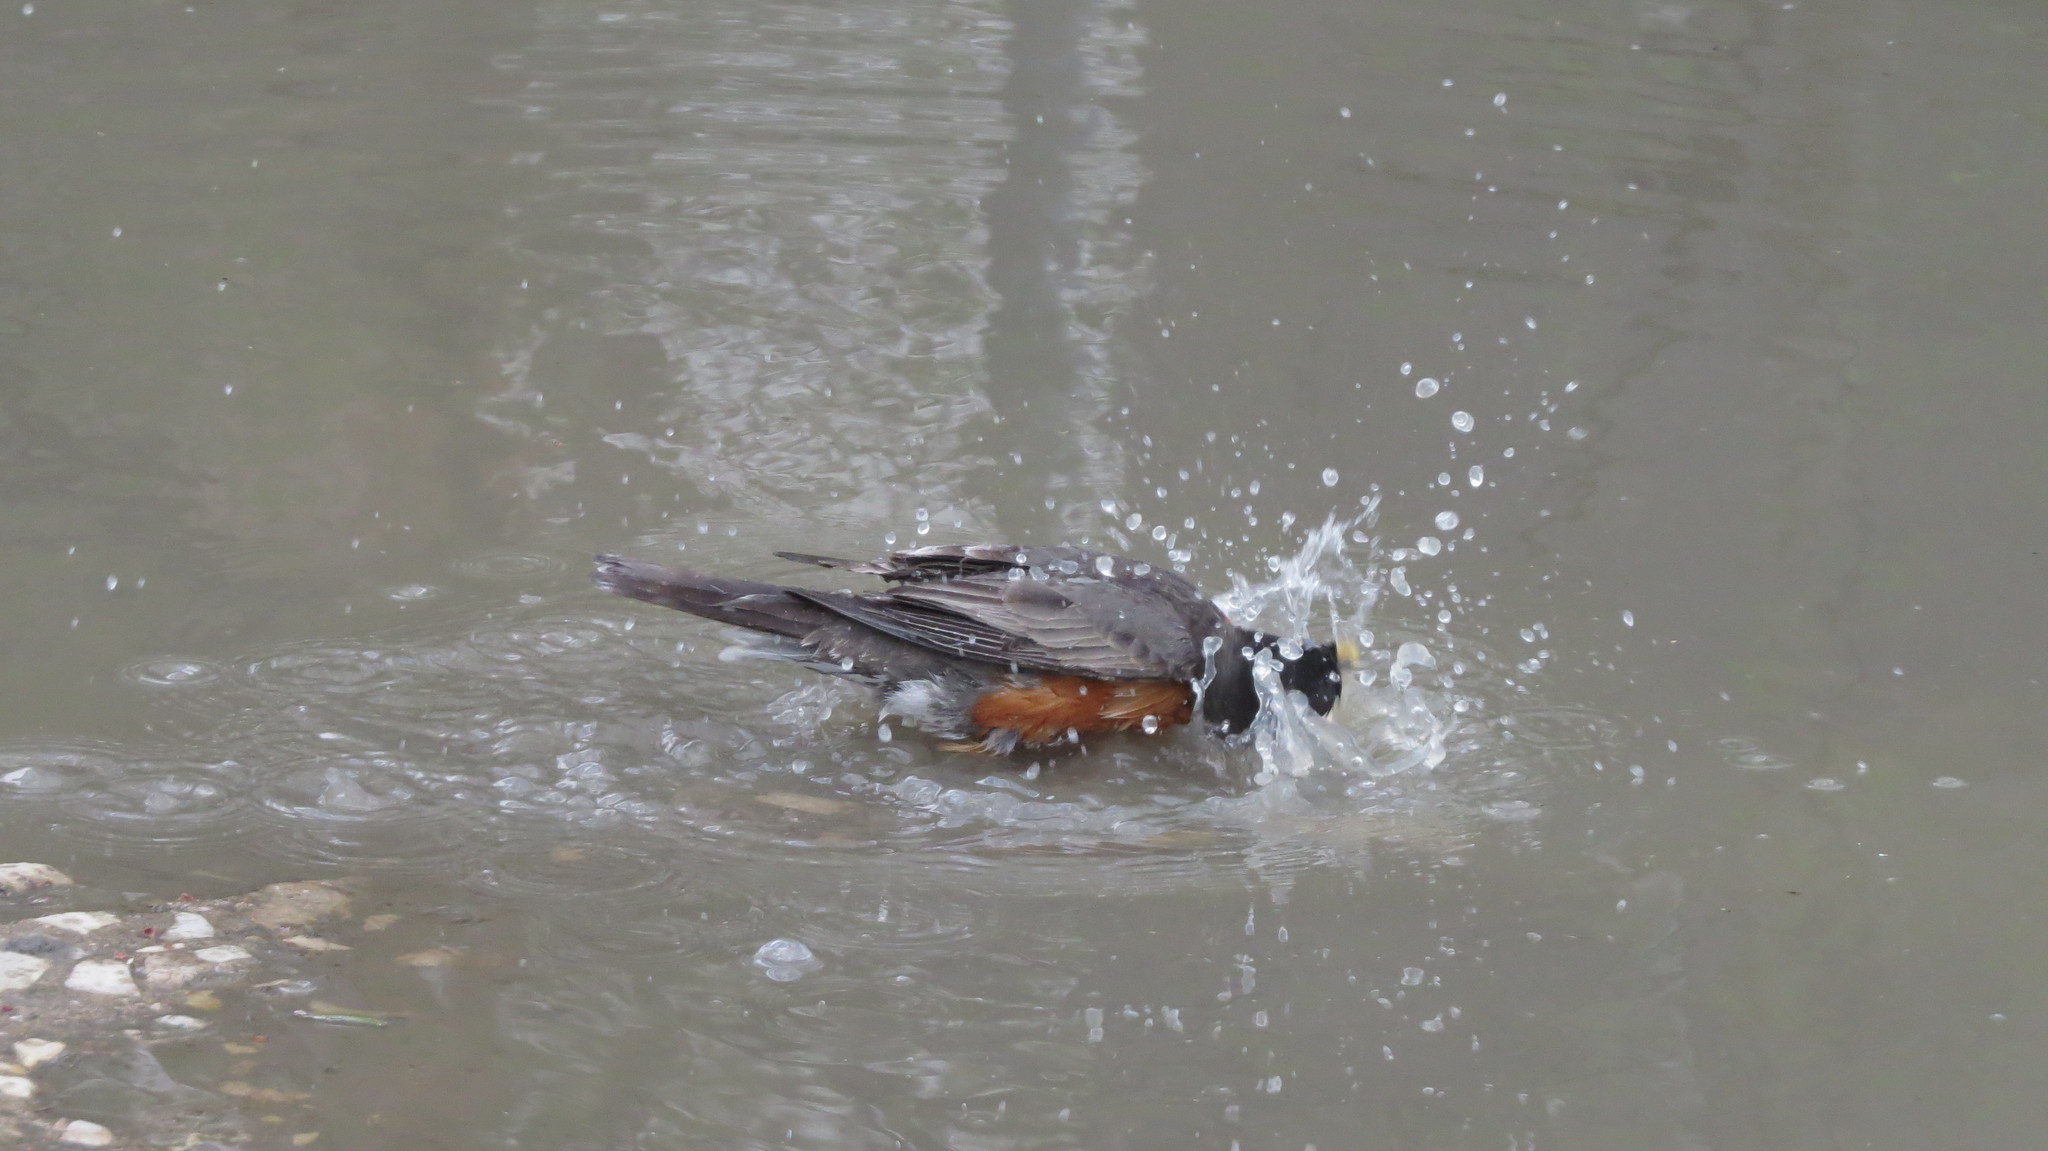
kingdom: Animalia
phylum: Chordata
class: Aves
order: Passeriformes
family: Turdidae
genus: Turdus
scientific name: Turdus migratorius
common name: American robin
